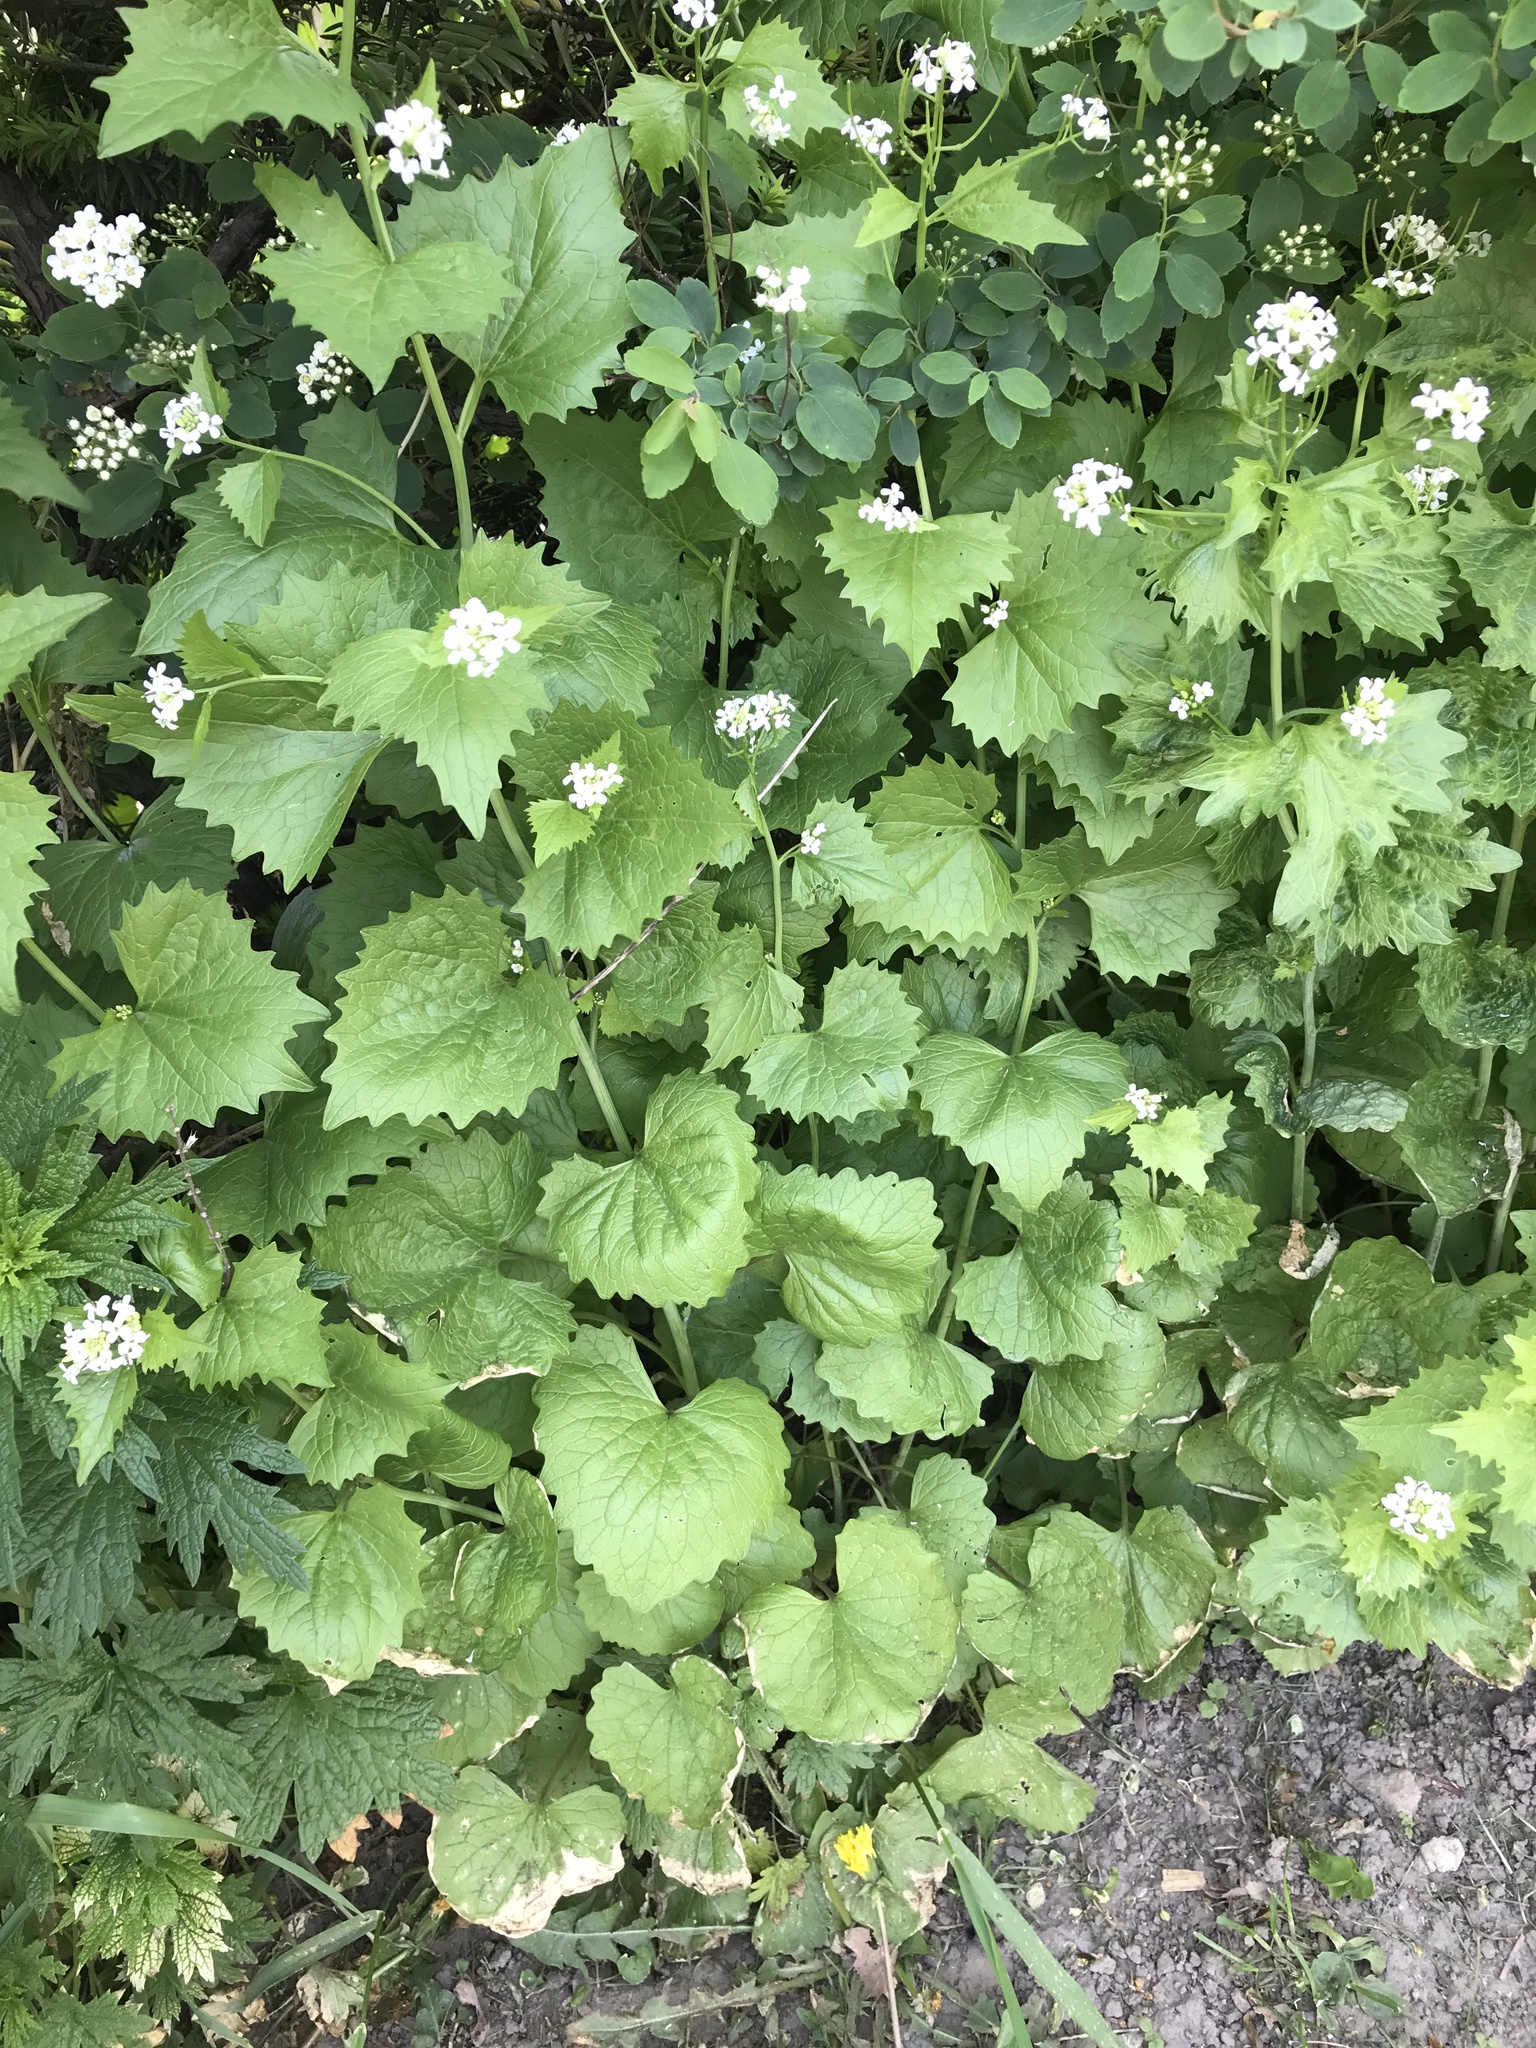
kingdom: Plantae
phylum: Tracheophyta
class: Magnoliopsida
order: Brassicales
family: Brassicaceae
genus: Alliaria
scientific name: Alliaria petiolata
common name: Garlic mustard
